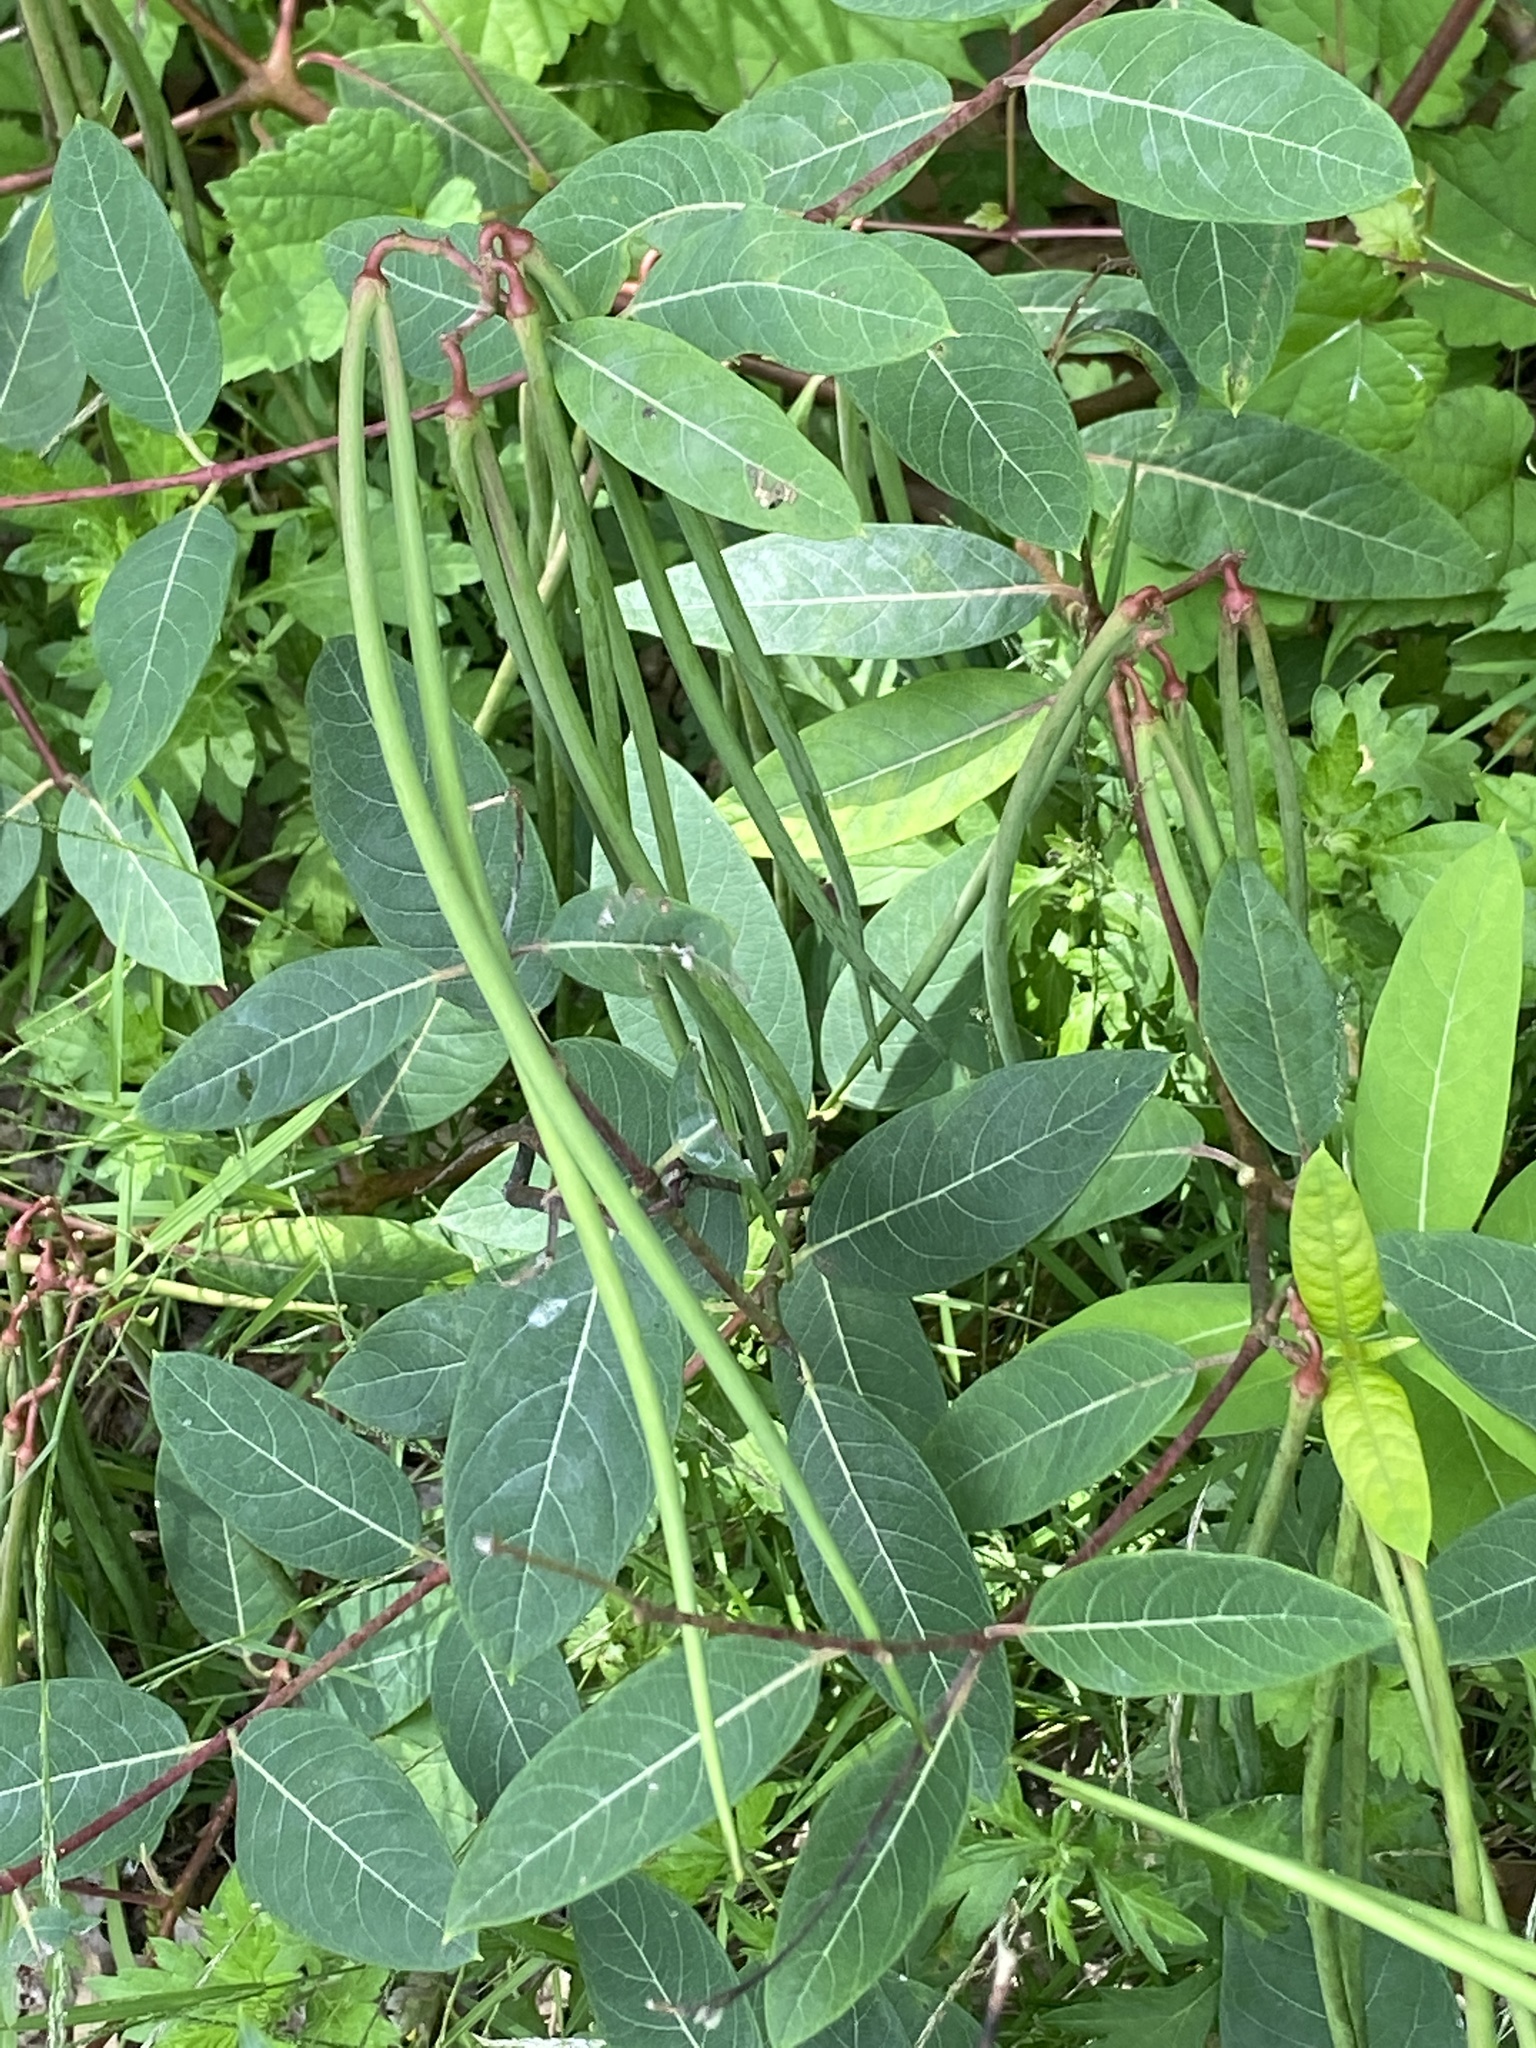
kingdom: Plantae
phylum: Tracheophyta
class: Magnoliopsida
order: Gentianales
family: Apocynaceae
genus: Apocynum
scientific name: Apocynum cannabinum
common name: Hemp dogbane
